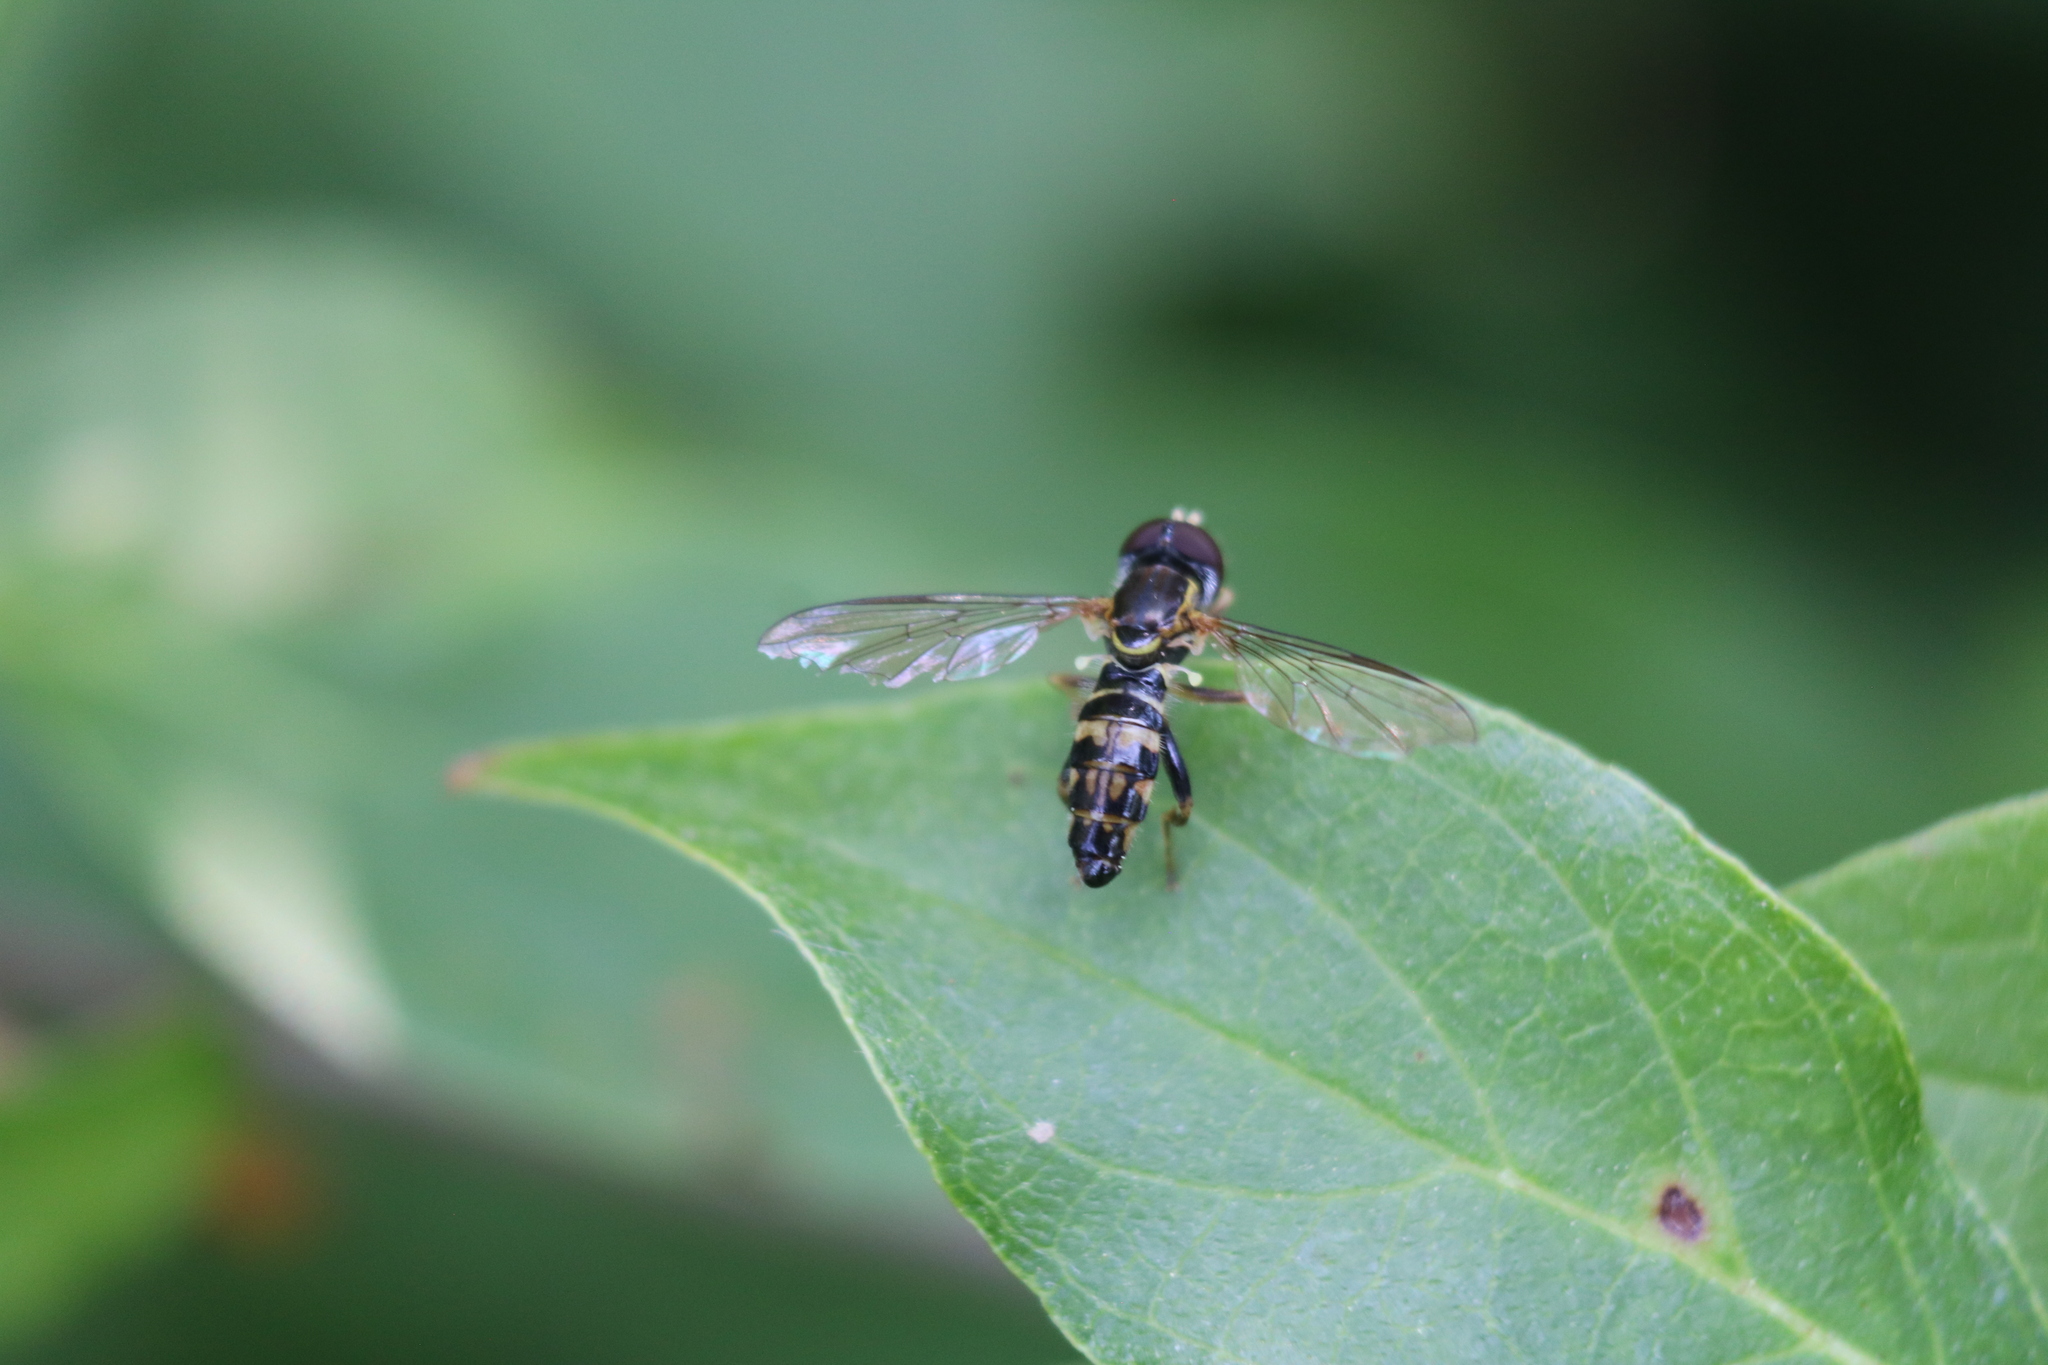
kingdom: Animalia
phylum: Arthropoda
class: Insecta
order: Diptera
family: Syrphidae
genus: Toxomerus
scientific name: Toxomerus geminatus
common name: Eastern calligrapher
